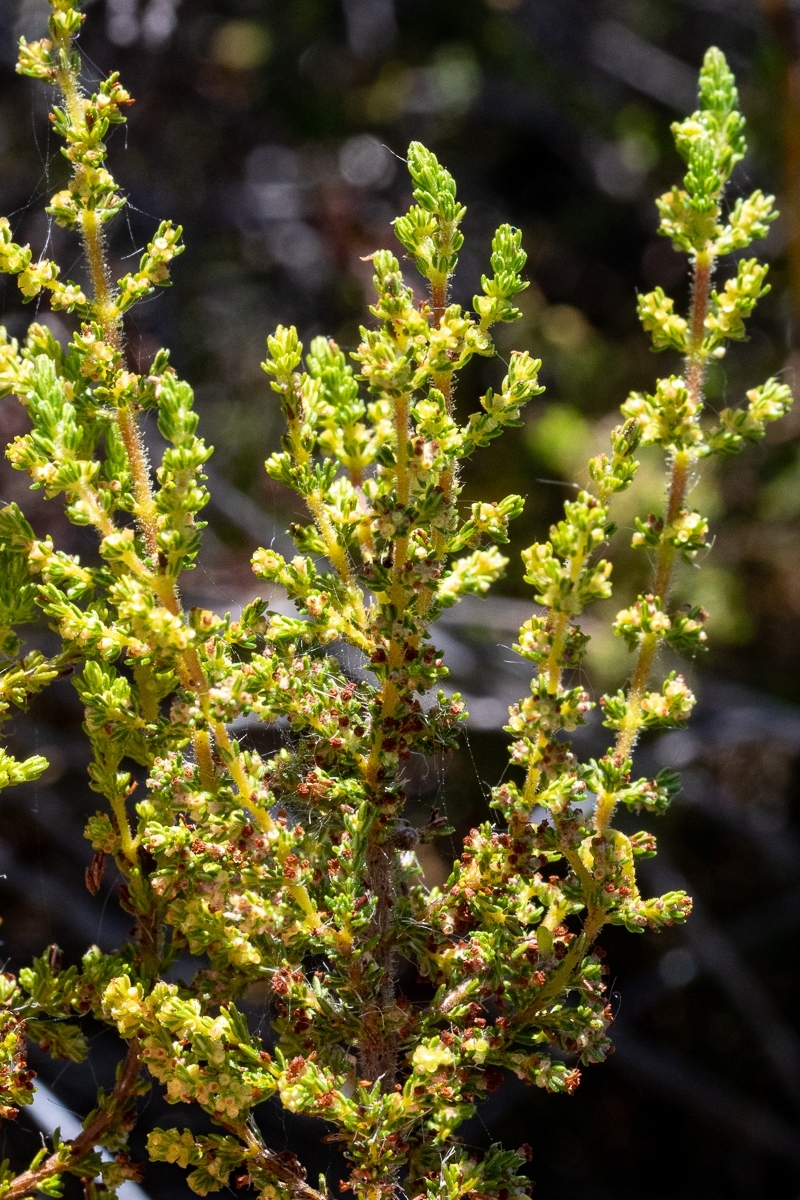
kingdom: Plantae
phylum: Tracheophyta
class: Magnoliopsida
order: Ericales
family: Ericaceae
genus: Erica
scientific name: Erica muscosa
